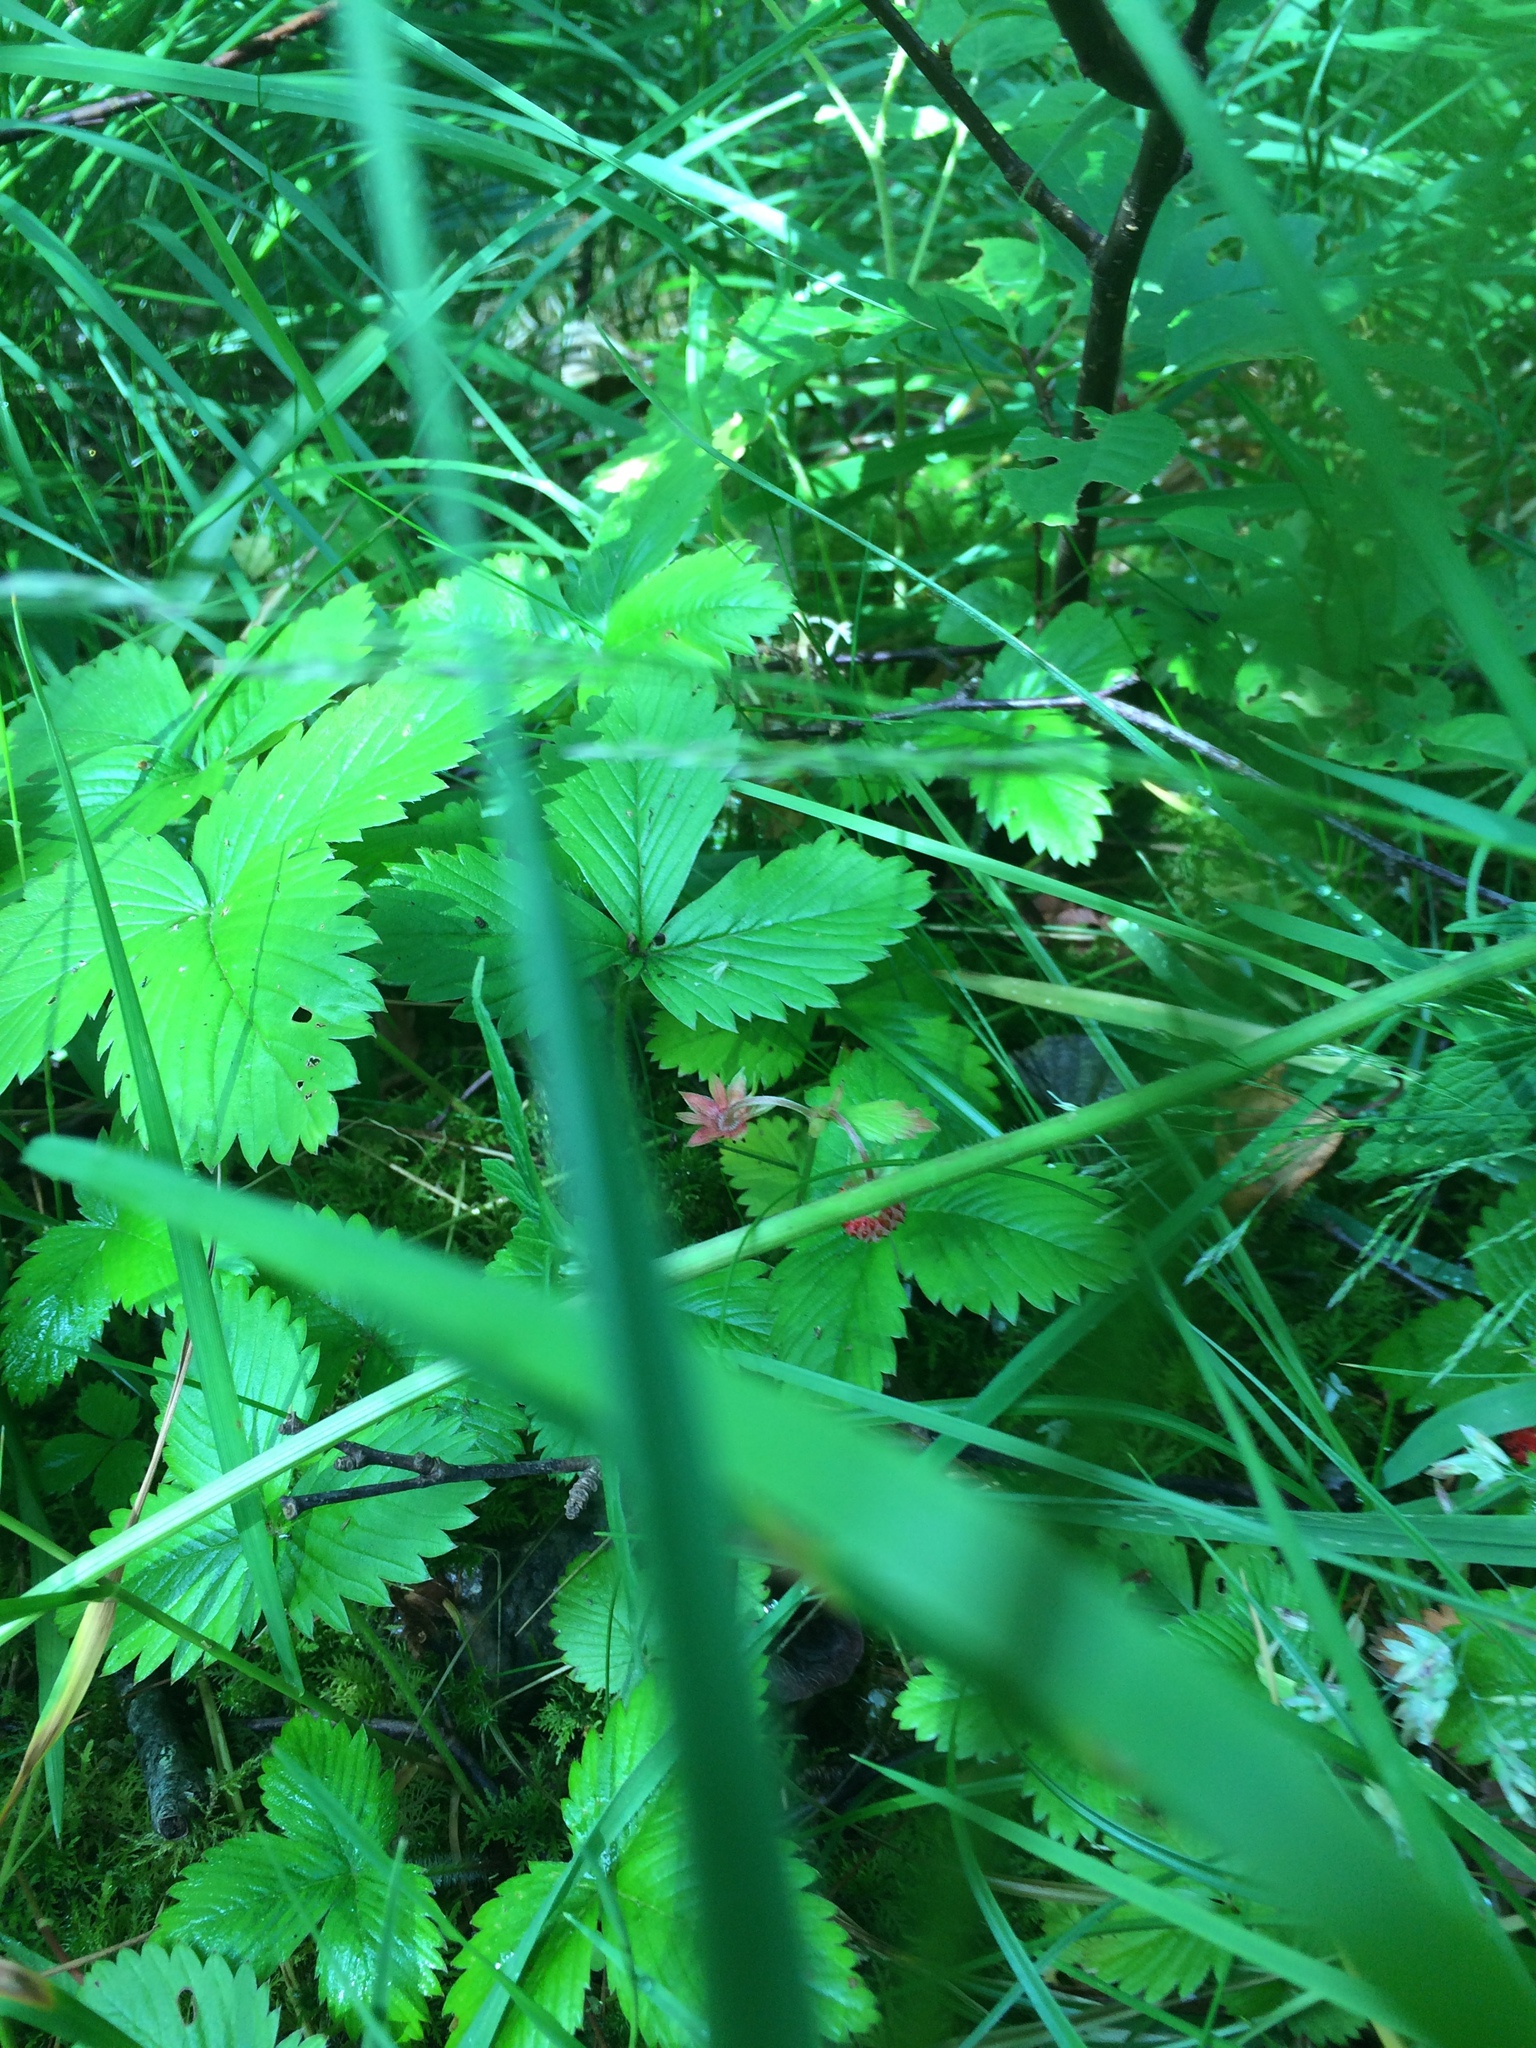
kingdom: Plantae
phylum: Tracheophyta
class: Magnoliopsida
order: Rosales
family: Rosaceae
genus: Fragaria
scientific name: Fragaria vesca
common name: Wild strawberry
